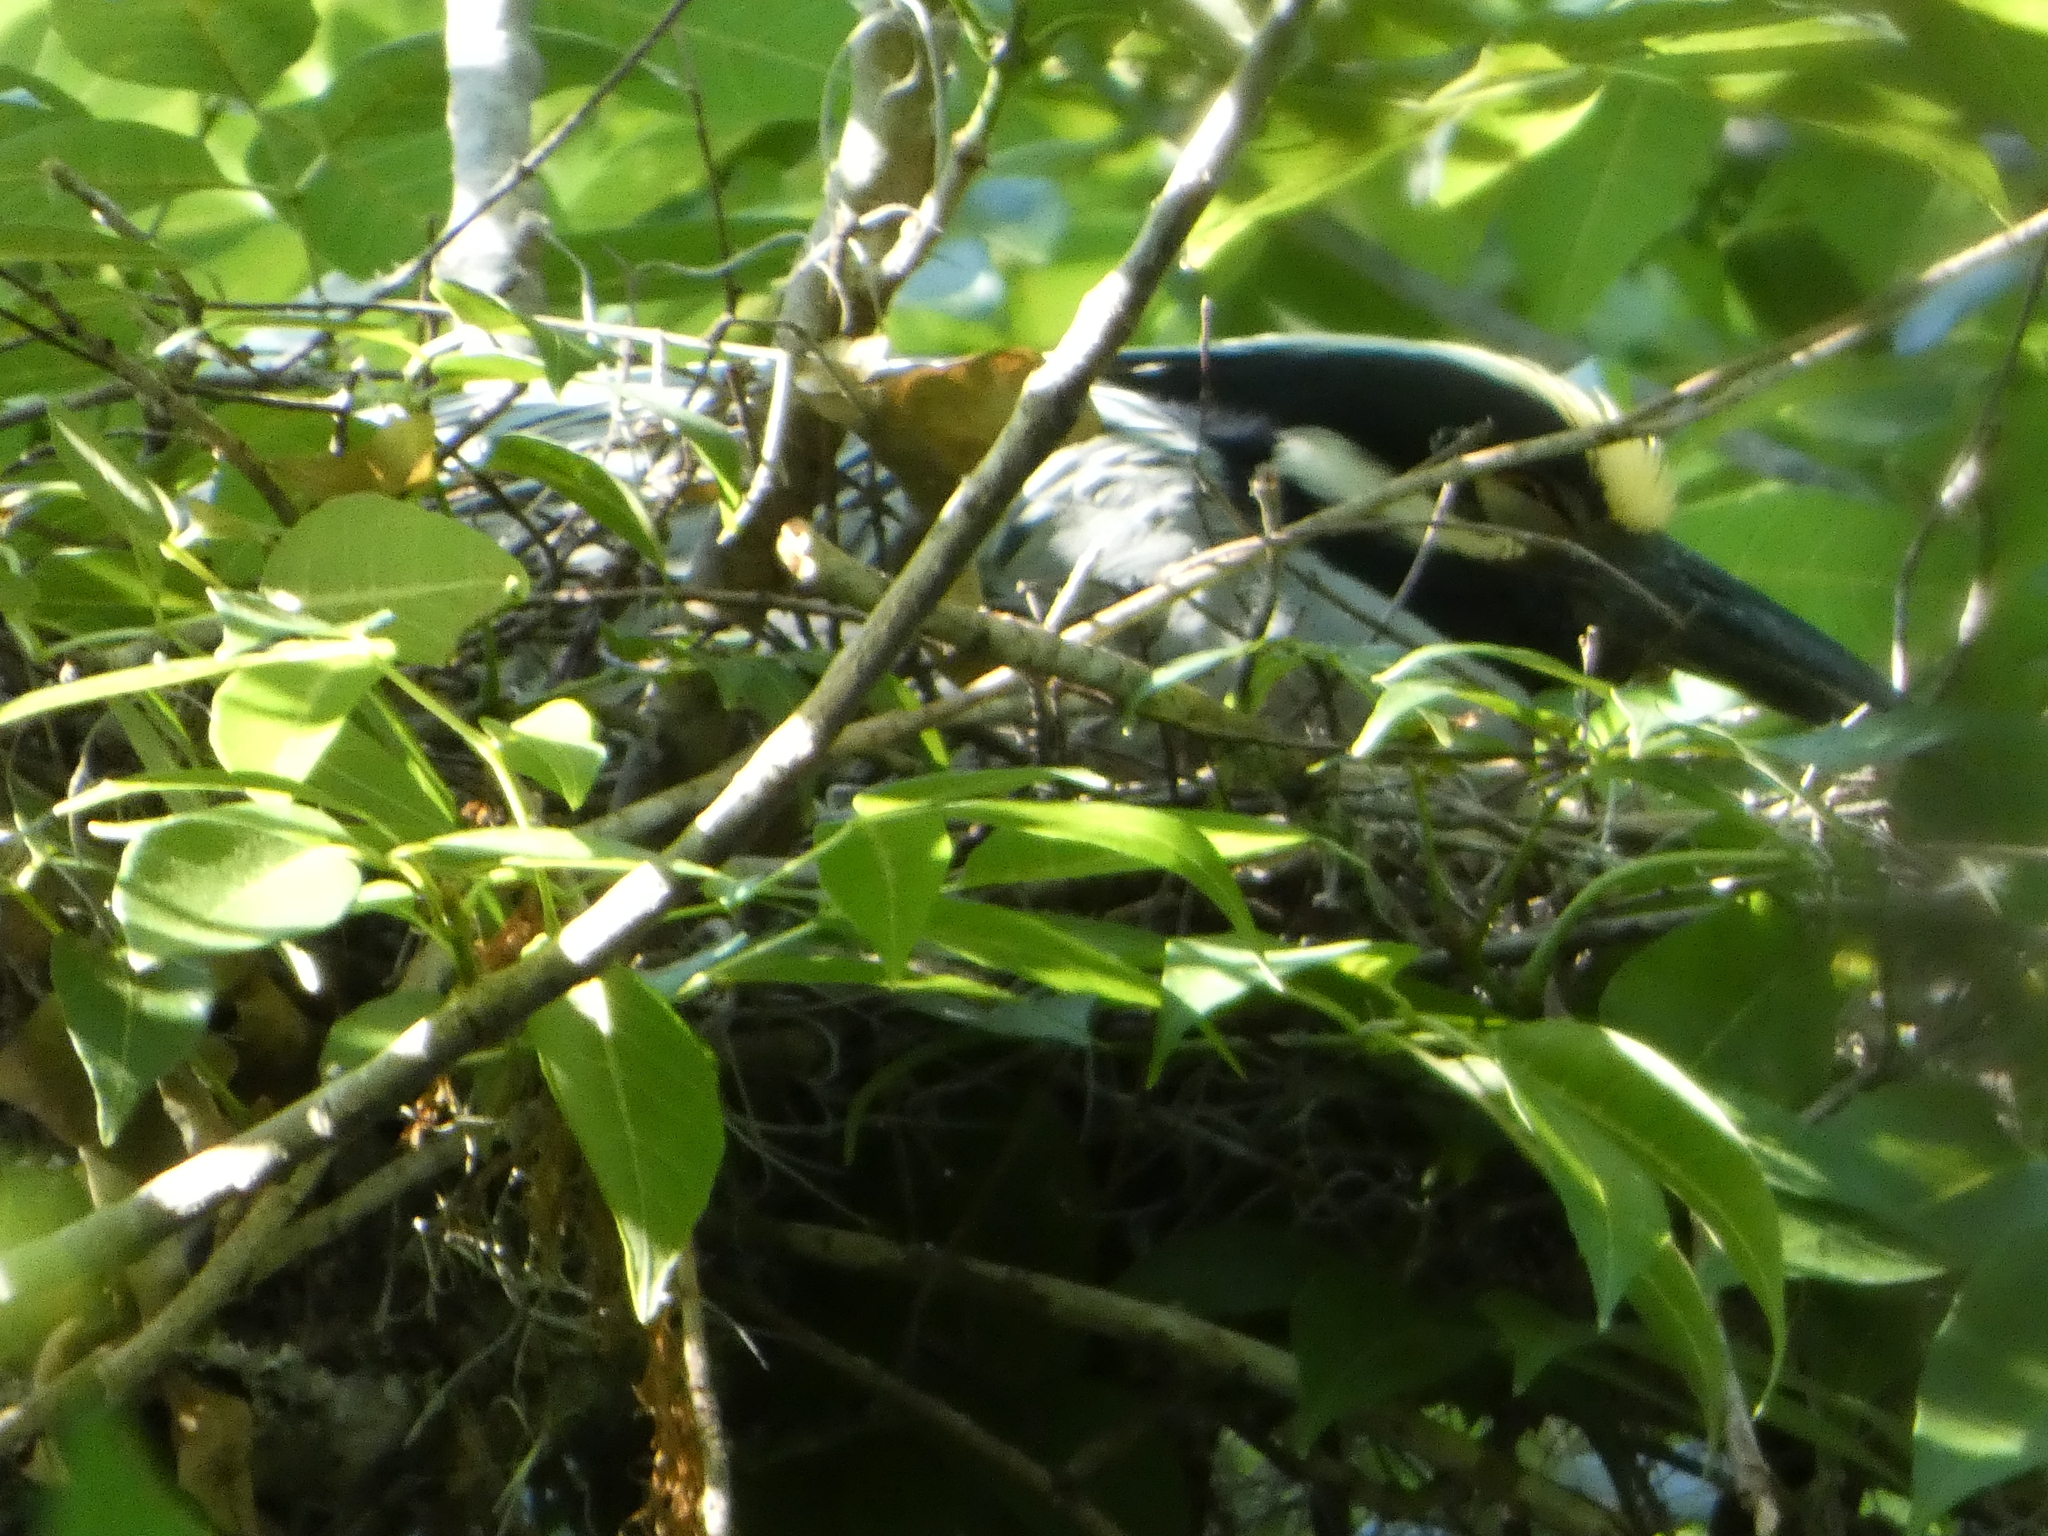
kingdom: Animalia
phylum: Chordata
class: Aves
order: Pelecaniformes
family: Ardeidae
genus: Nyctanassa
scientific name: Nyctanassa violacea
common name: Yellow-crowned night heron
